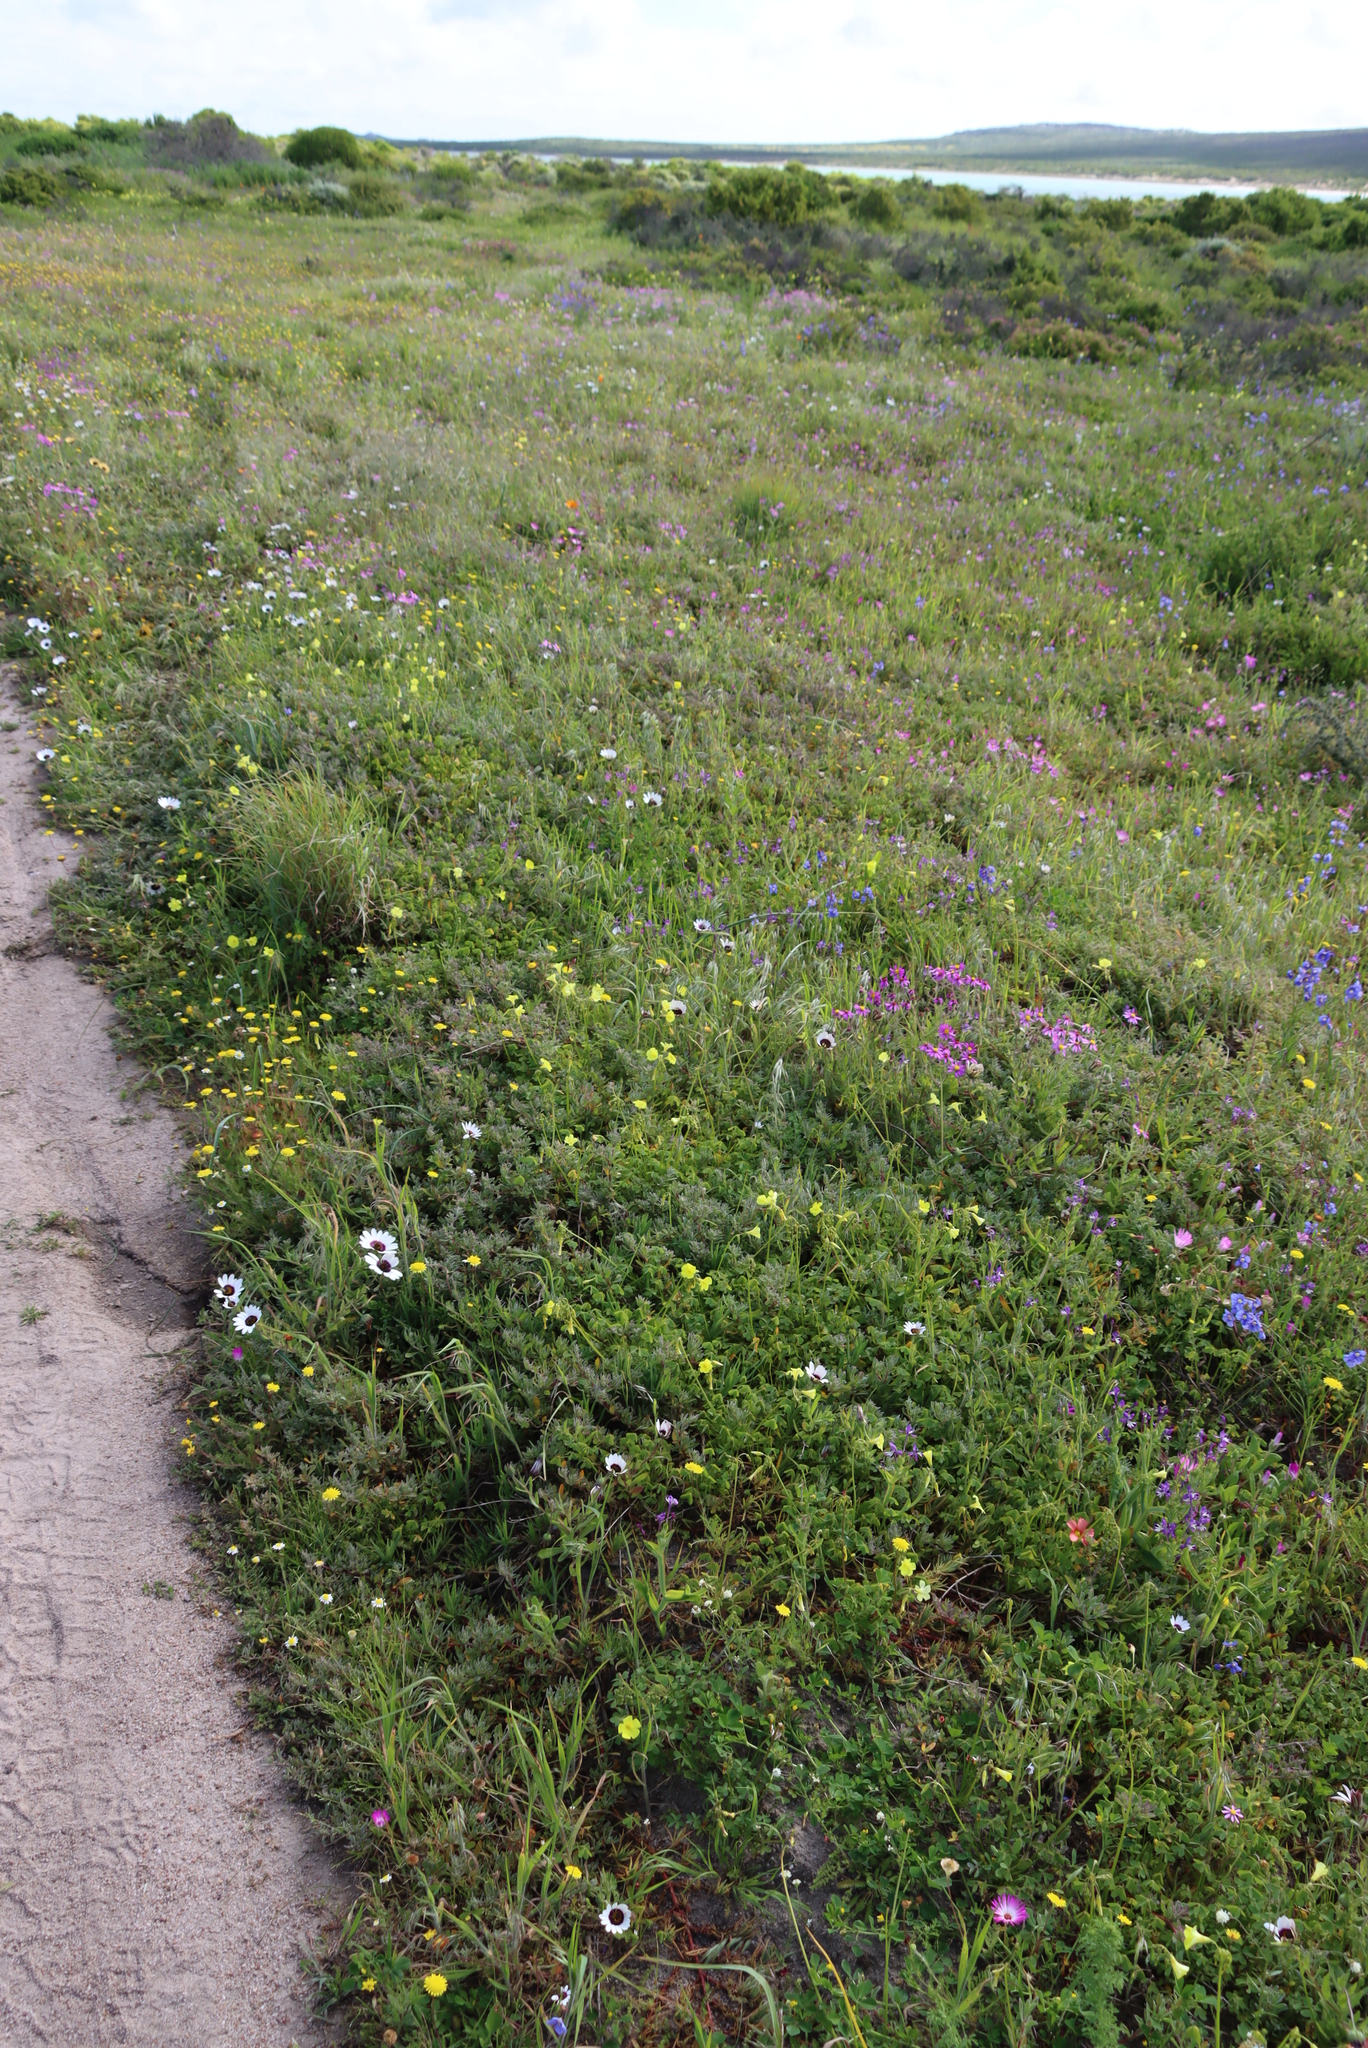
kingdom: Plantae
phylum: Tracheophyta
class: Magnoliopsida
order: Oxalidales
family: Oxalidaceae
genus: Oxalis
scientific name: Oxalis pes-caprae
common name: Bermuda-buttercup
